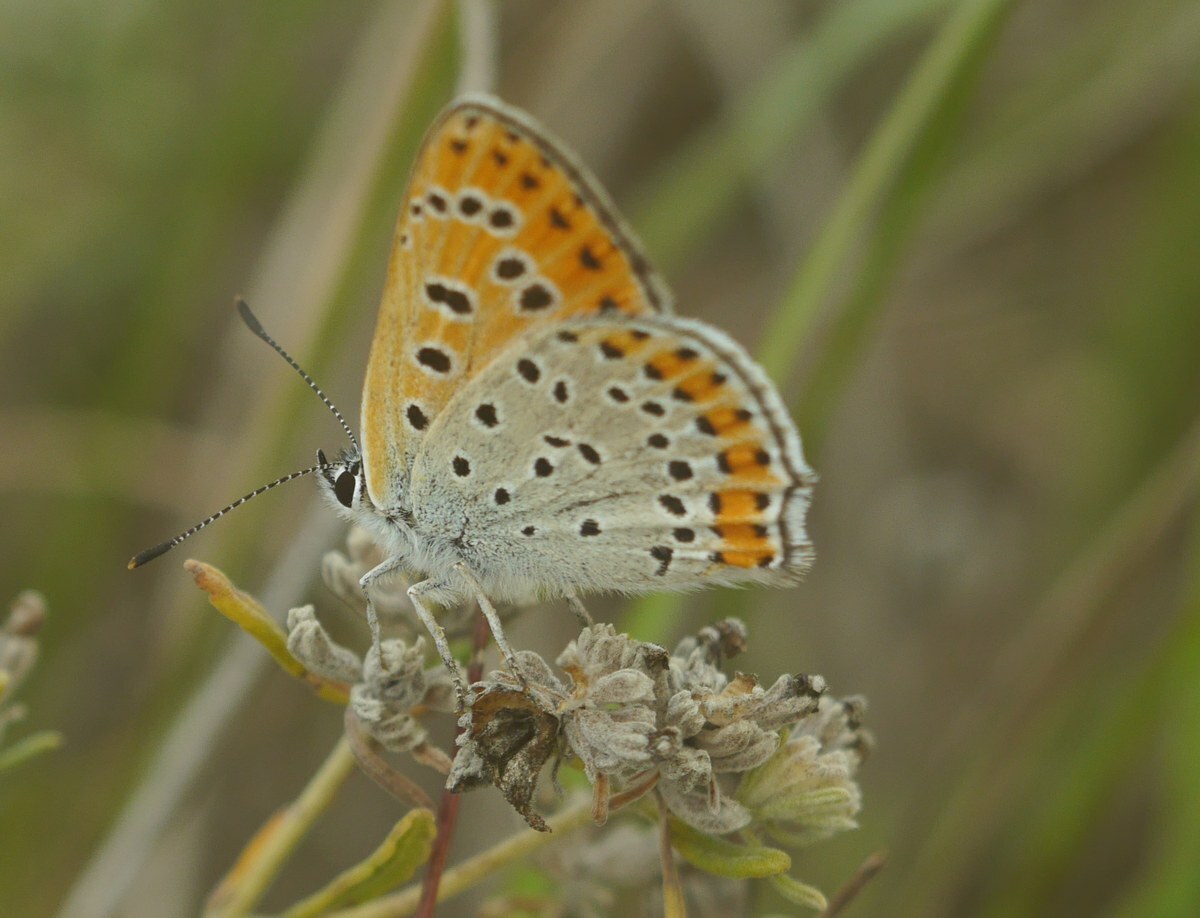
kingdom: Animalia
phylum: Arthropoda
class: Insecta
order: Lepidoptera
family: Lycaenidae
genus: Thersamonia
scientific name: Thersamonia thersamon
